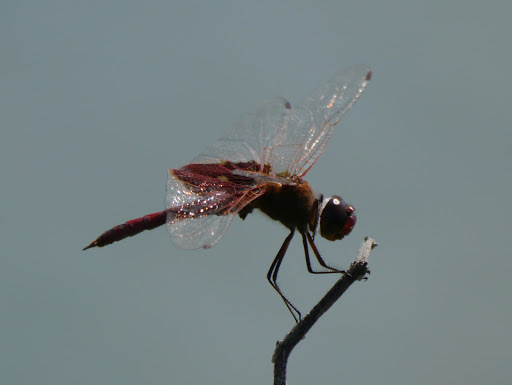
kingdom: Animalia
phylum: Arthropoda
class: Insecta
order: Odonata
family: Libellulidae
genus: Tramea
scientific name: Tramea carolina
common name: Carolina saddlebags
